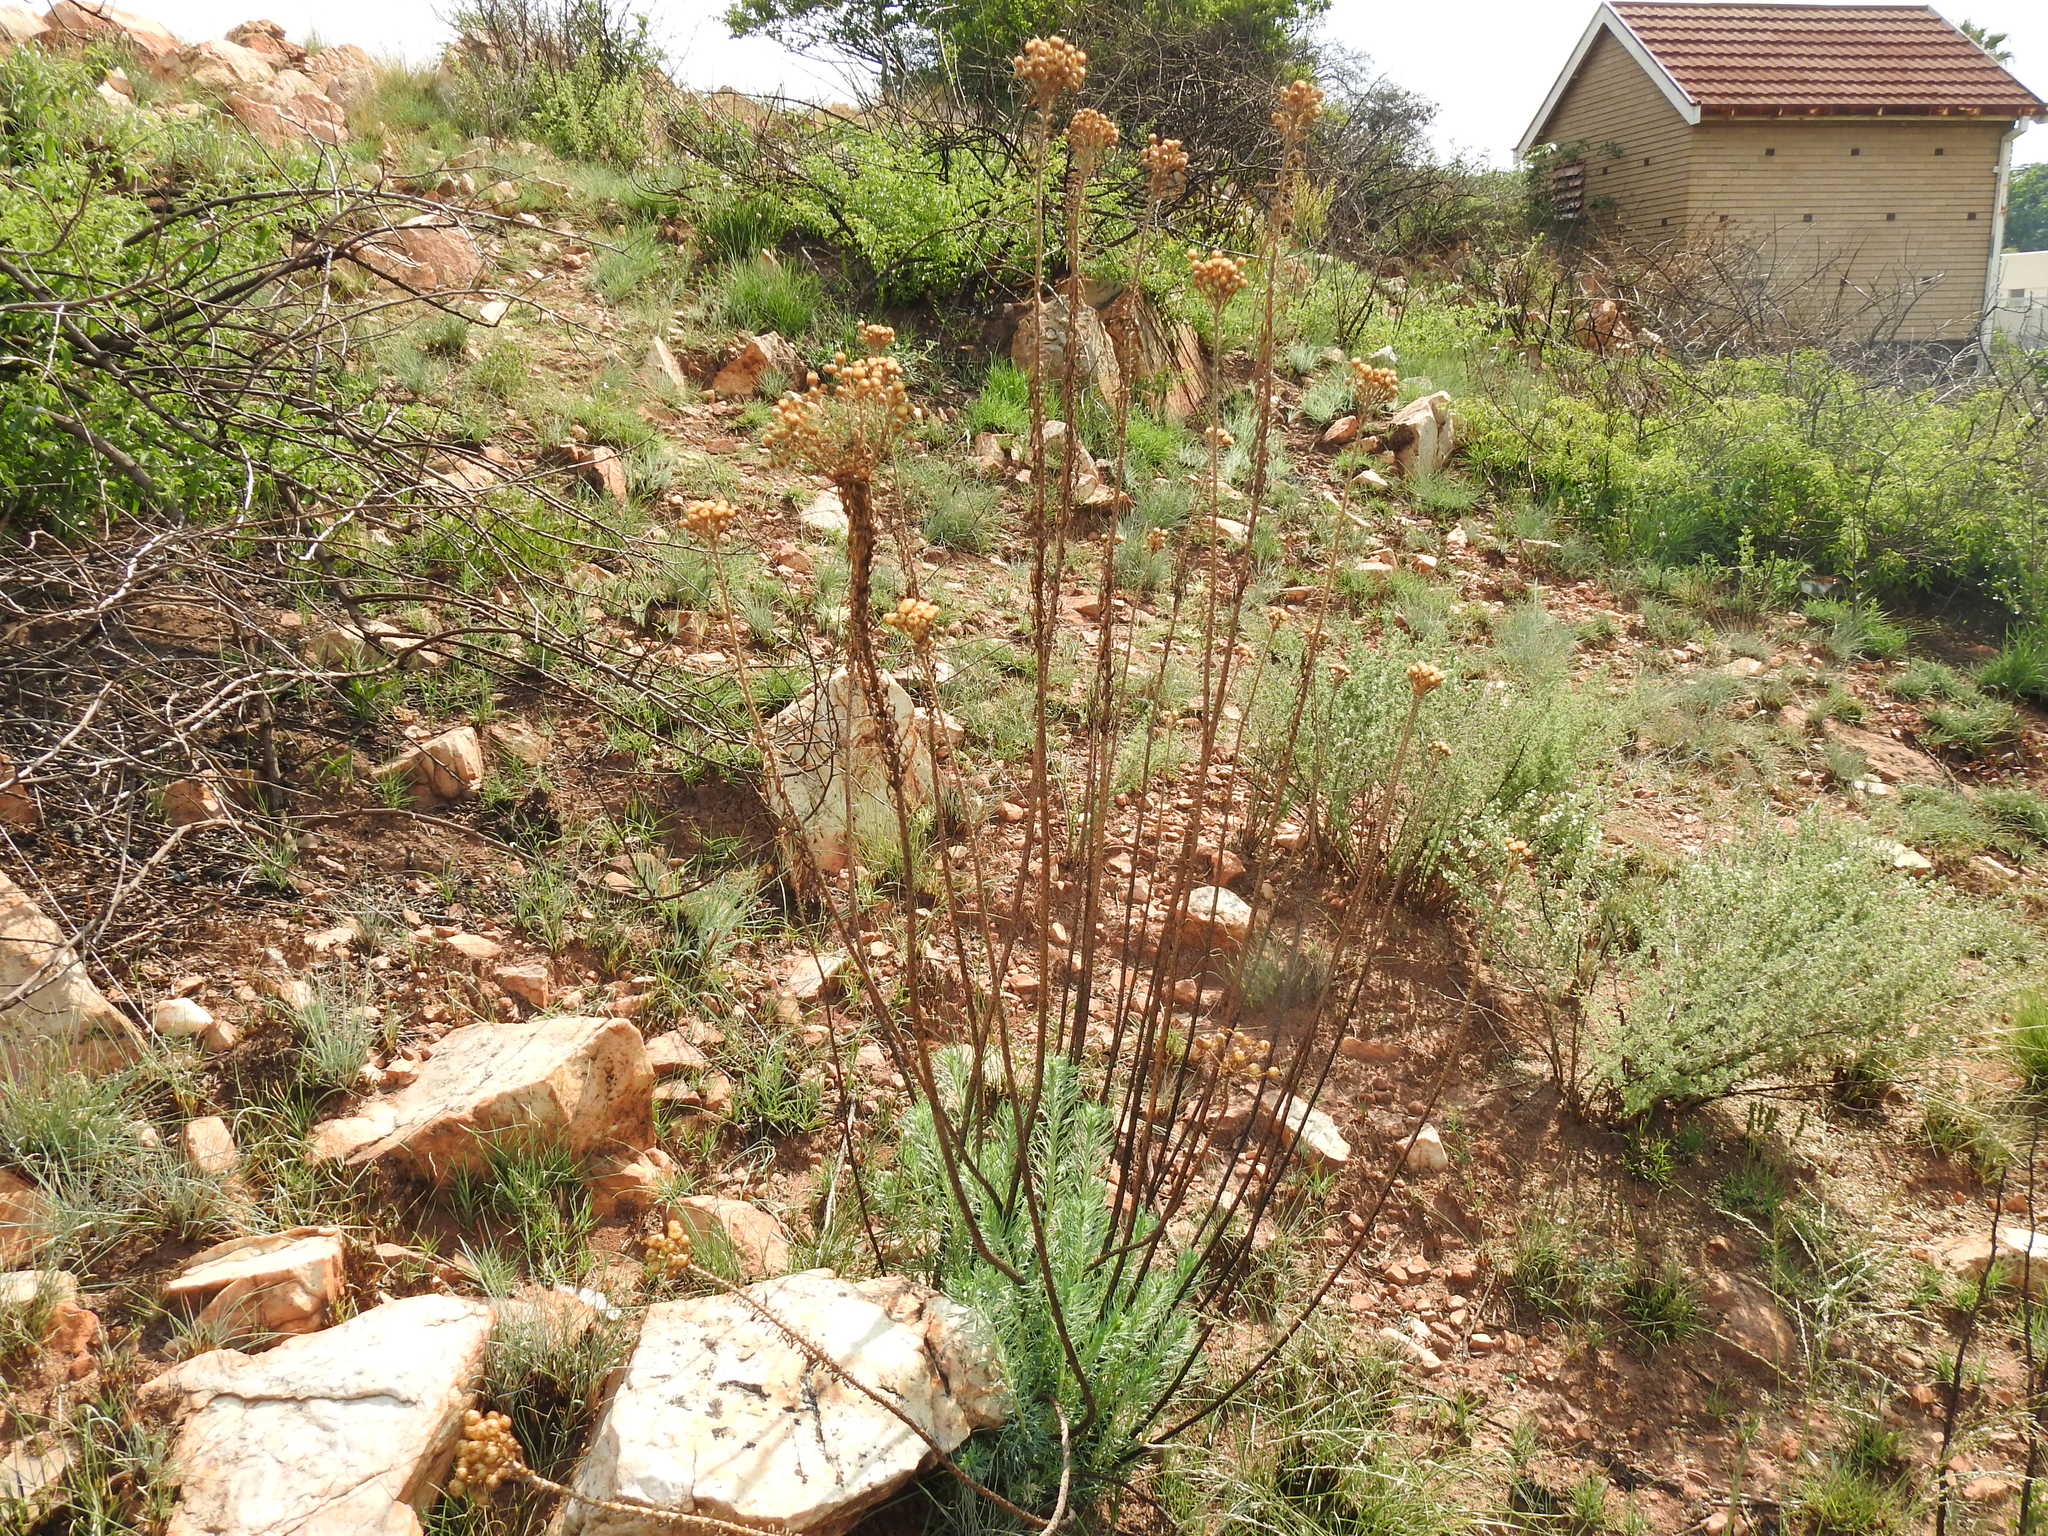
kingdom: Plantae
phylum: Tracheophyta
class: Magnoliopsida
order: Asterales
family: Asteraceae
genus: Phymaspermum
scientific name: Phymaspermum athanasioides
